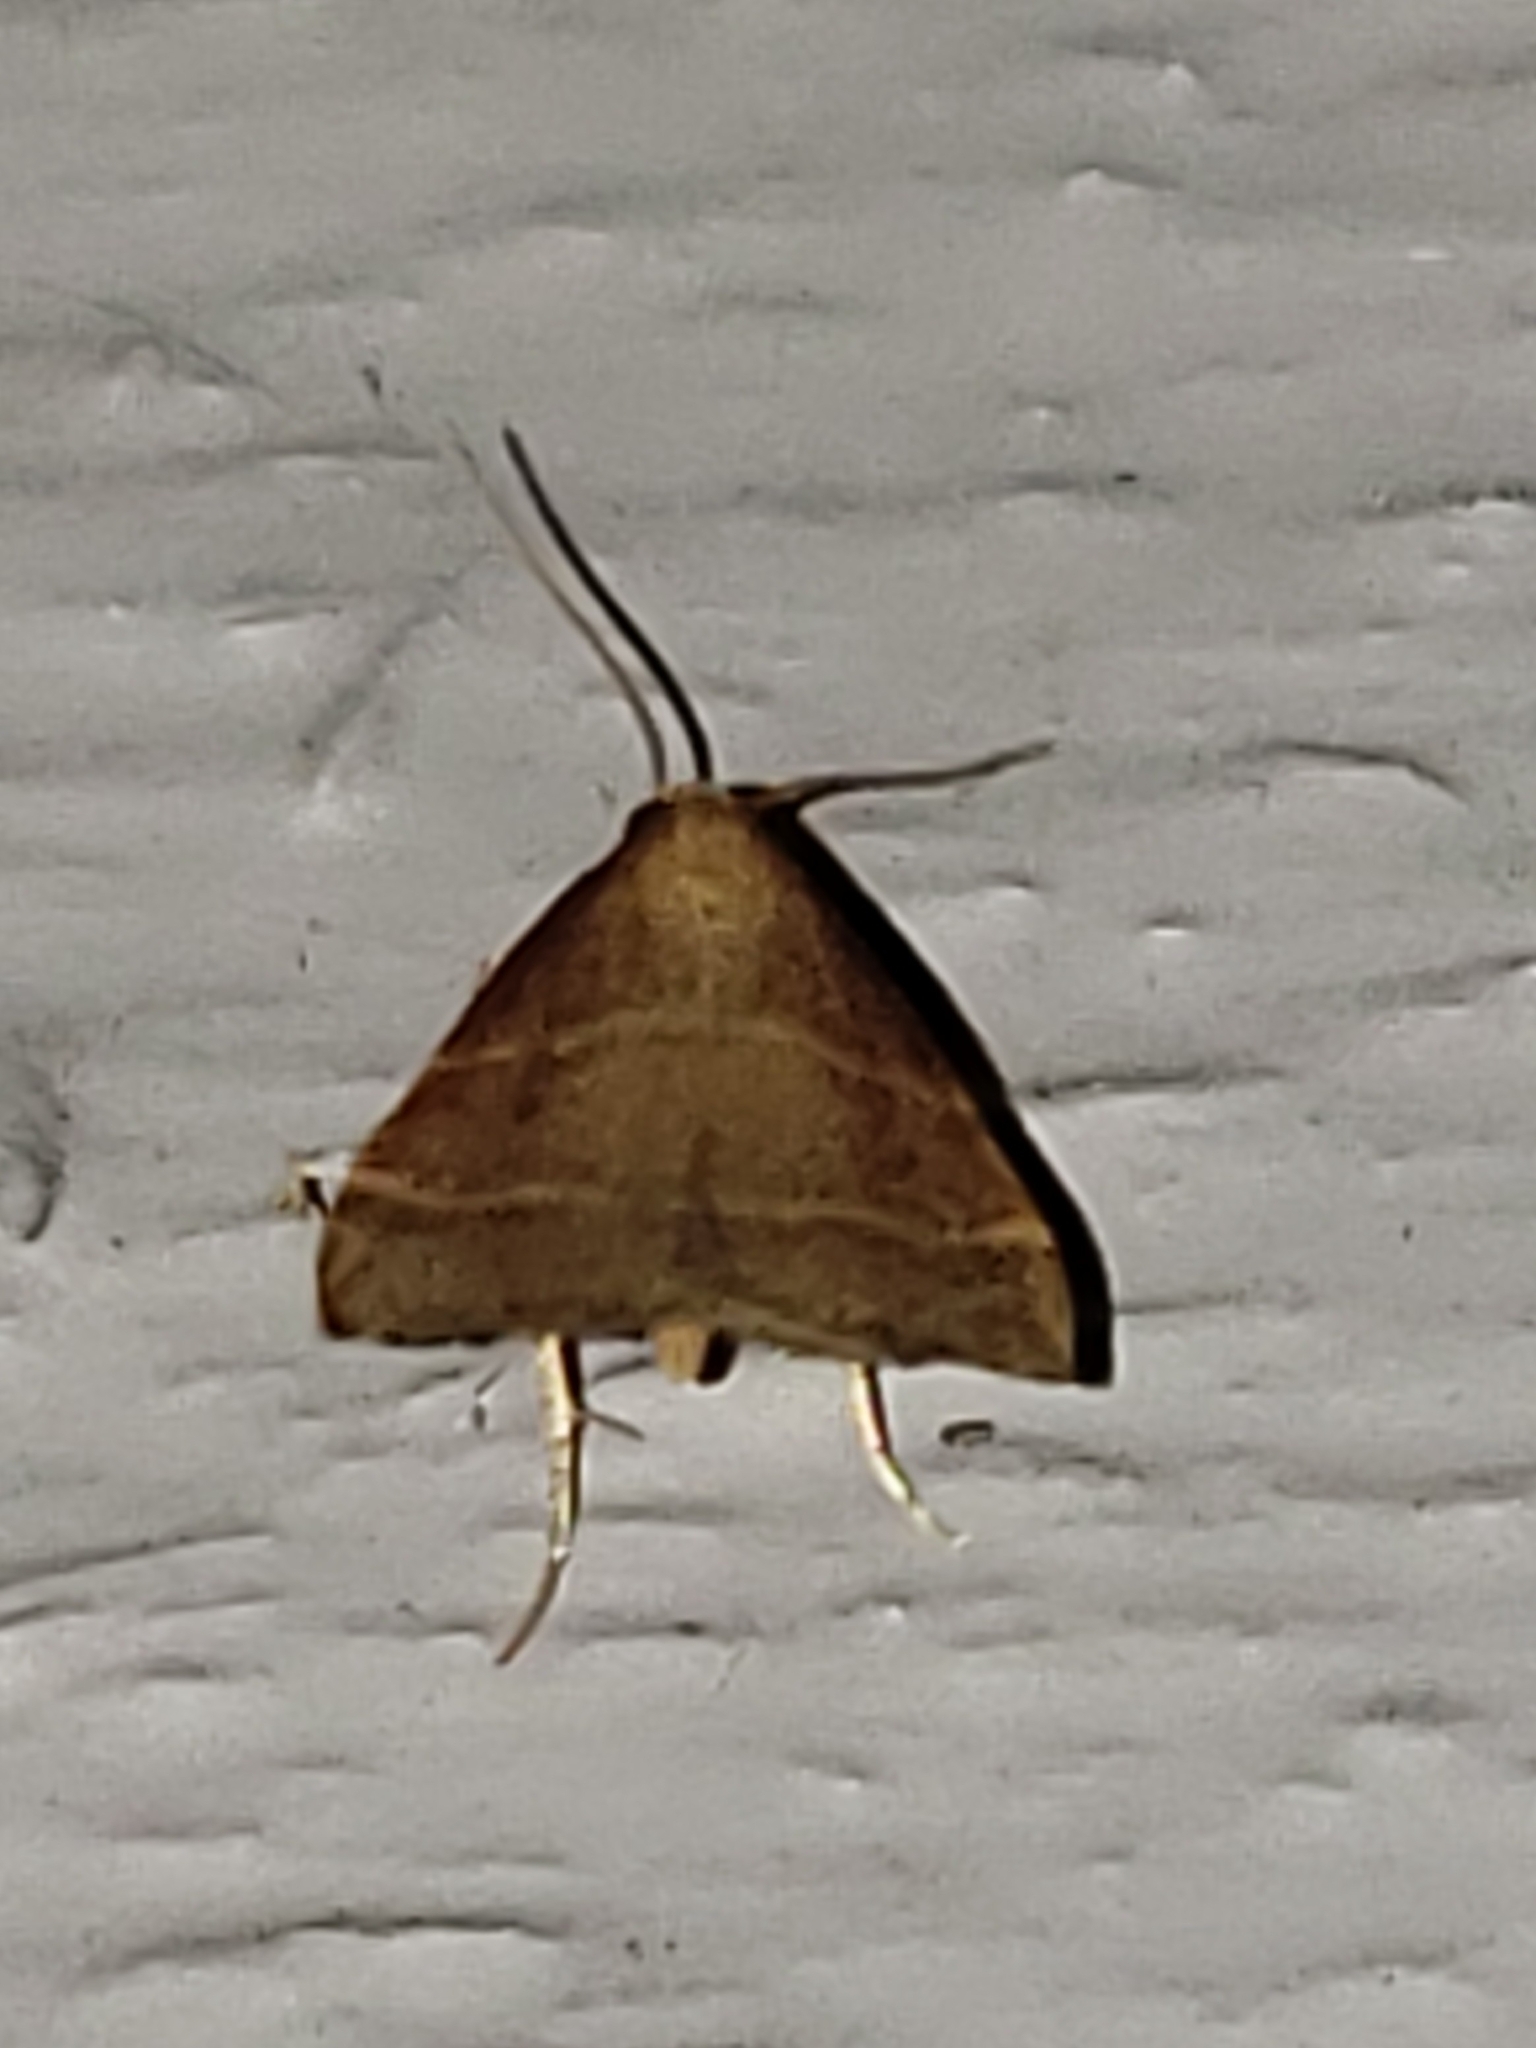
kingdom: Animalia
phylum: Arthropoda
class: Insecta
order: Lepidoptera
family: Pyralidae
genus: Arta
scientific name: Arta statalis
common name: Posturing arta moth
